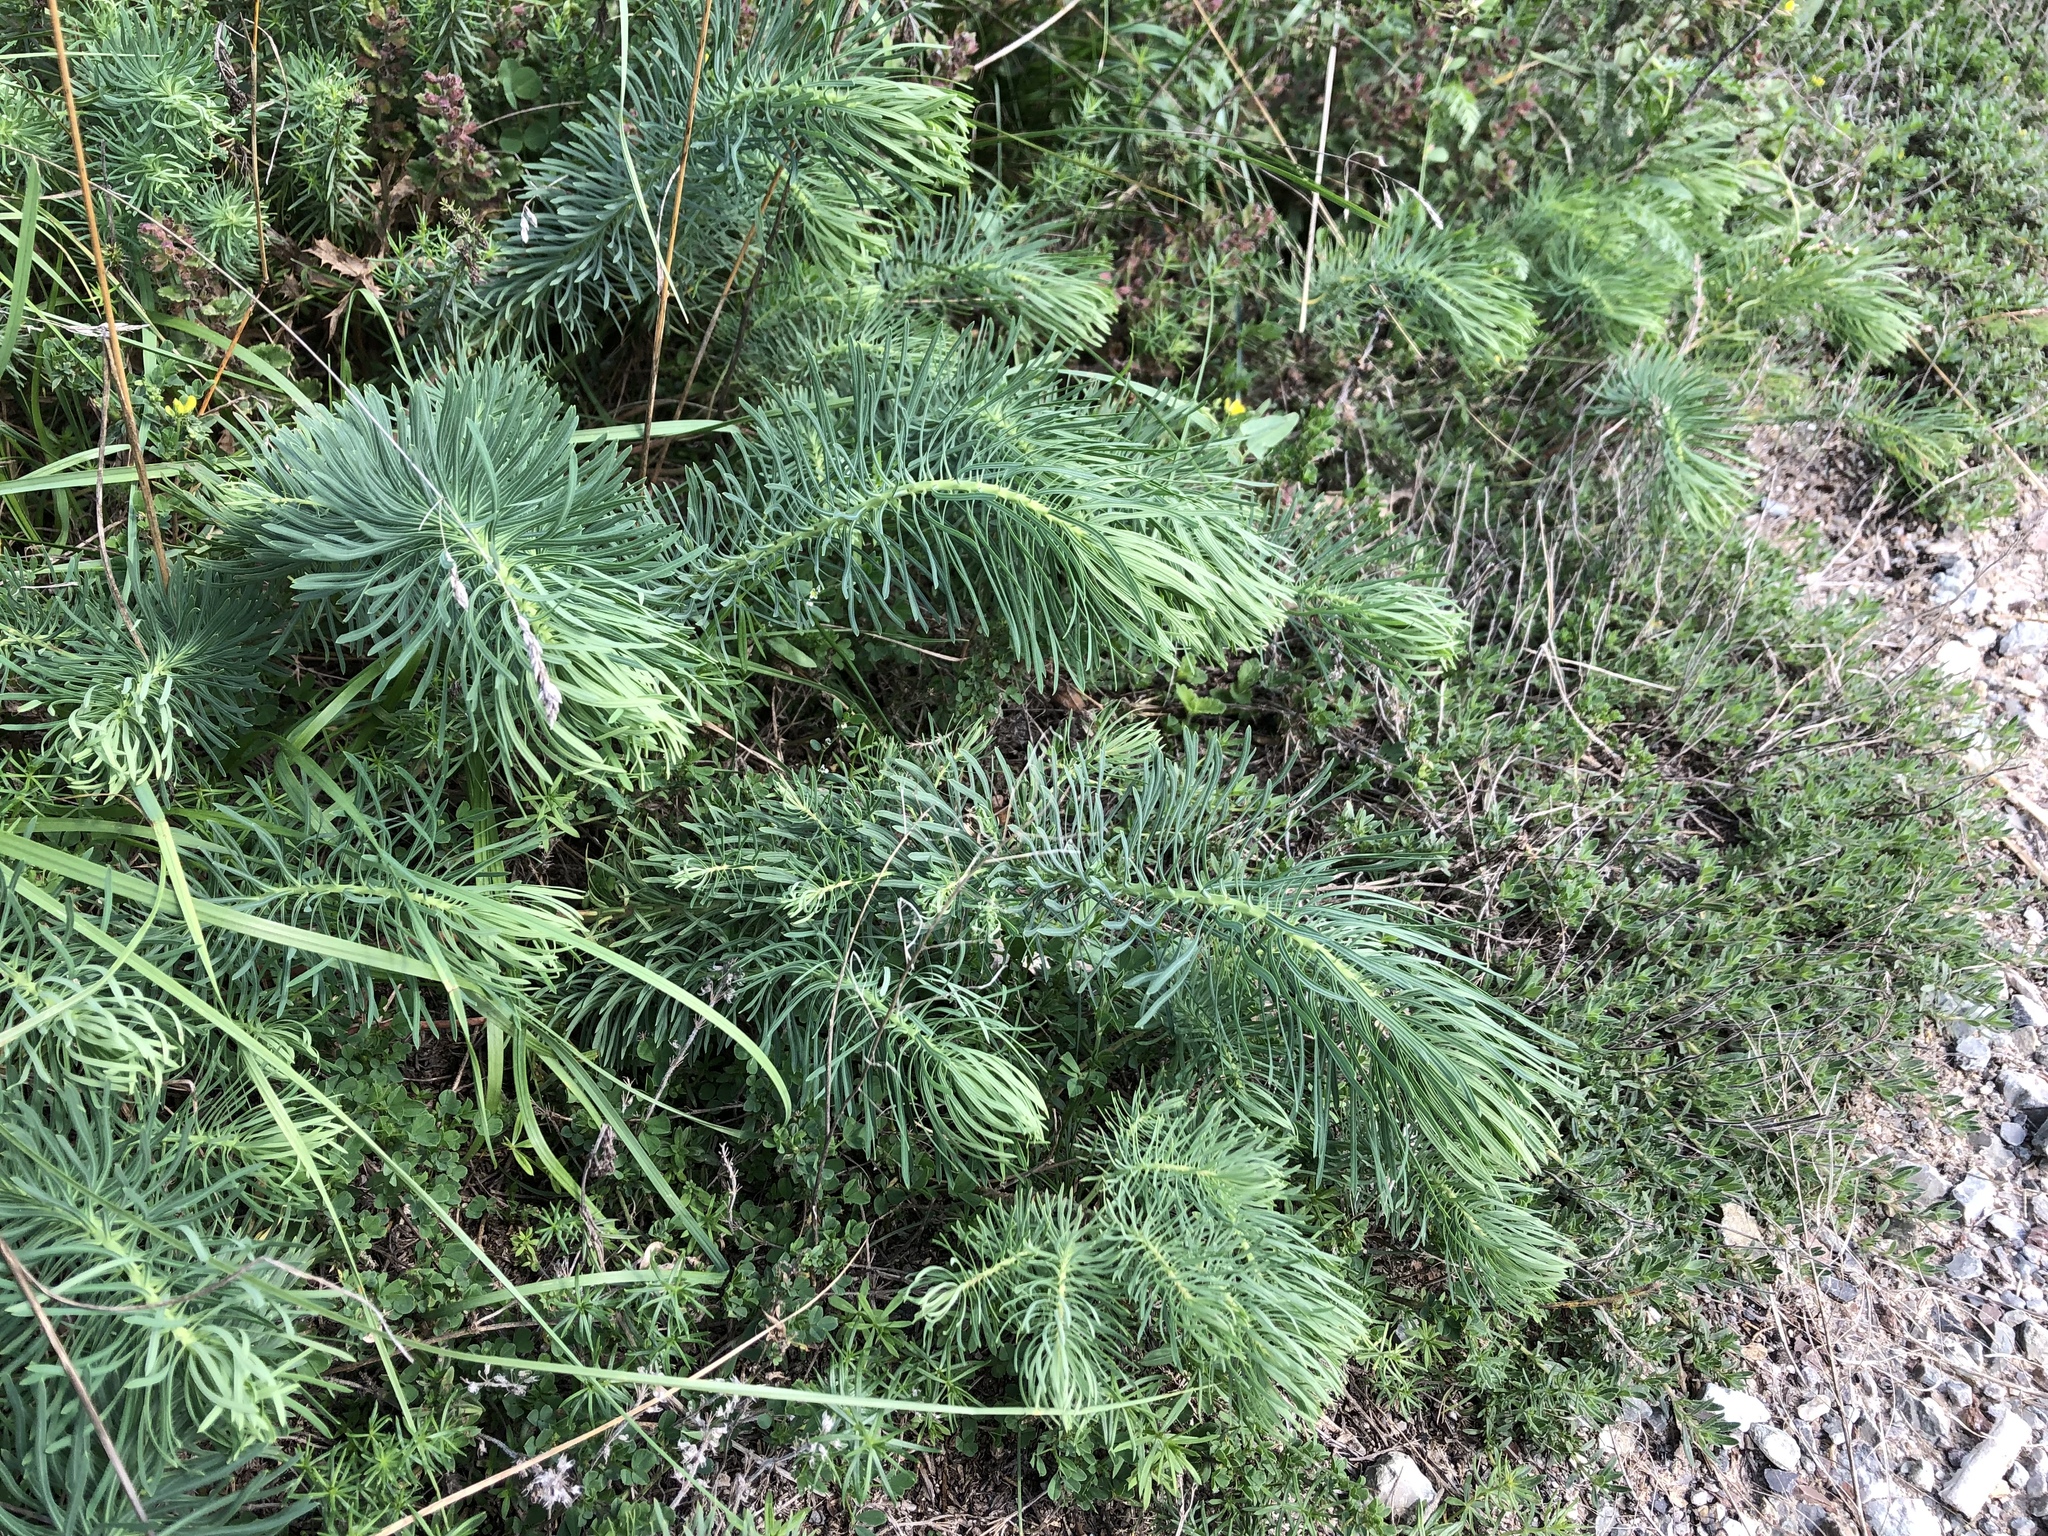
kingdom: Plantae
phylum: Tracheophyta
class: Magnoliopsida
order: Malpighiales
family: Euphorbiaceae
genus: Euphorbia
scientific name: Euphorbia cyparissias
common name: Cypress spurge
